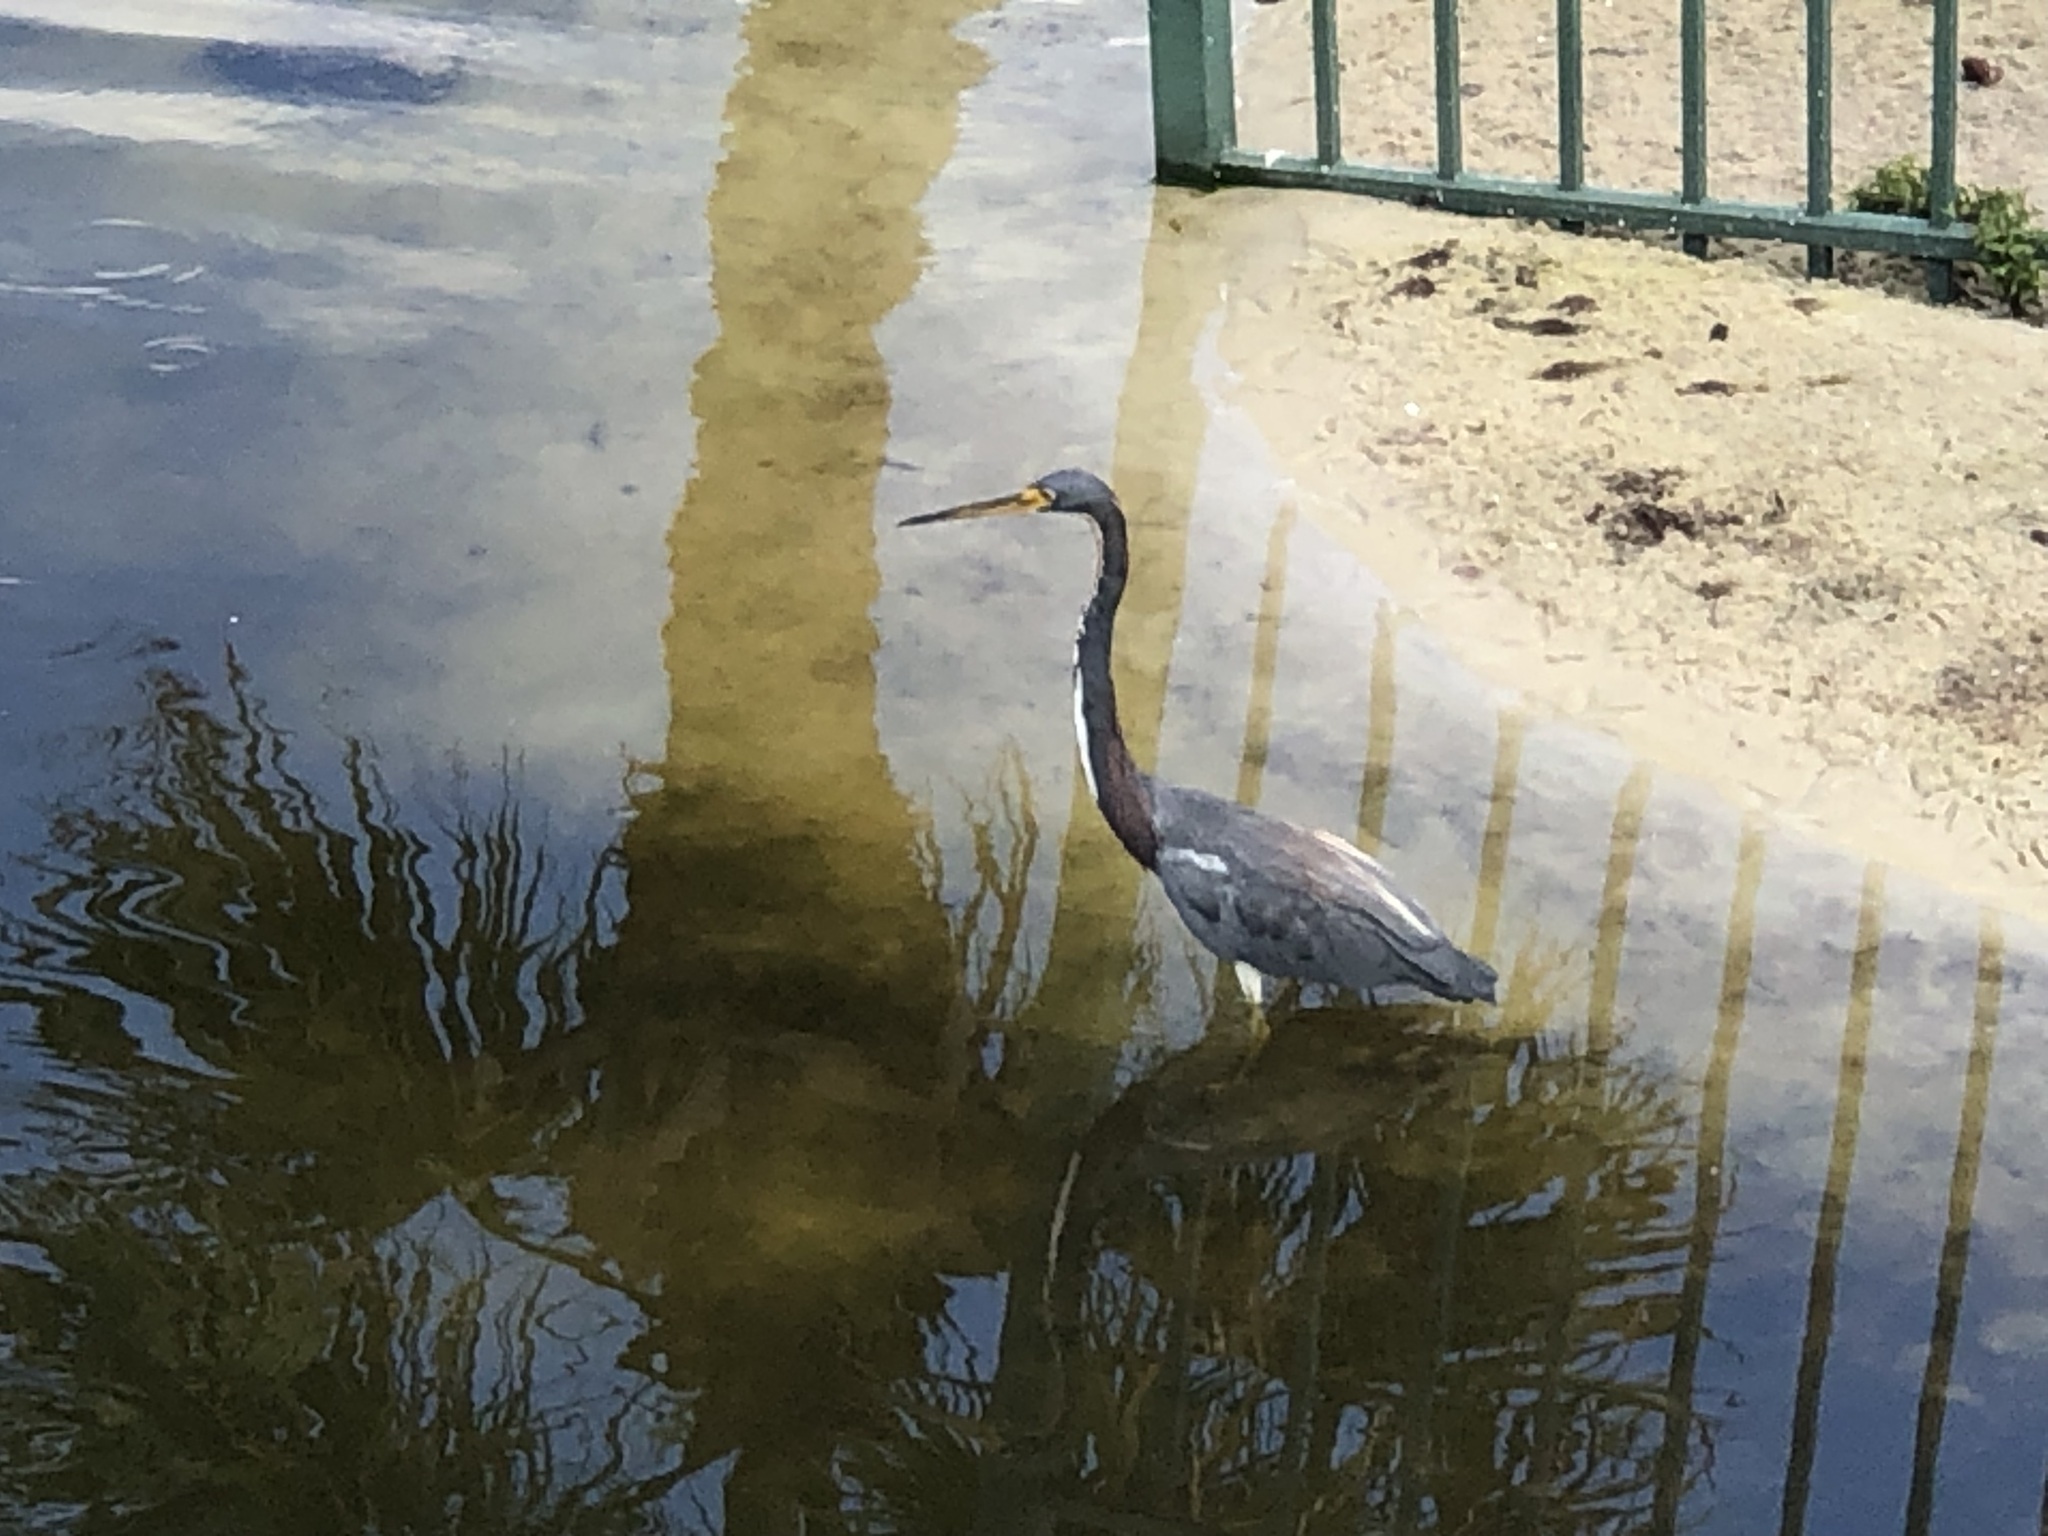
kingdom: Animalia
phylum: Chordata
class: Aves
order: Pelecaniformes
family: Ardeidae
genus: Egretta
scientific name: Egretta tricolor
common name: Tricolored heron
